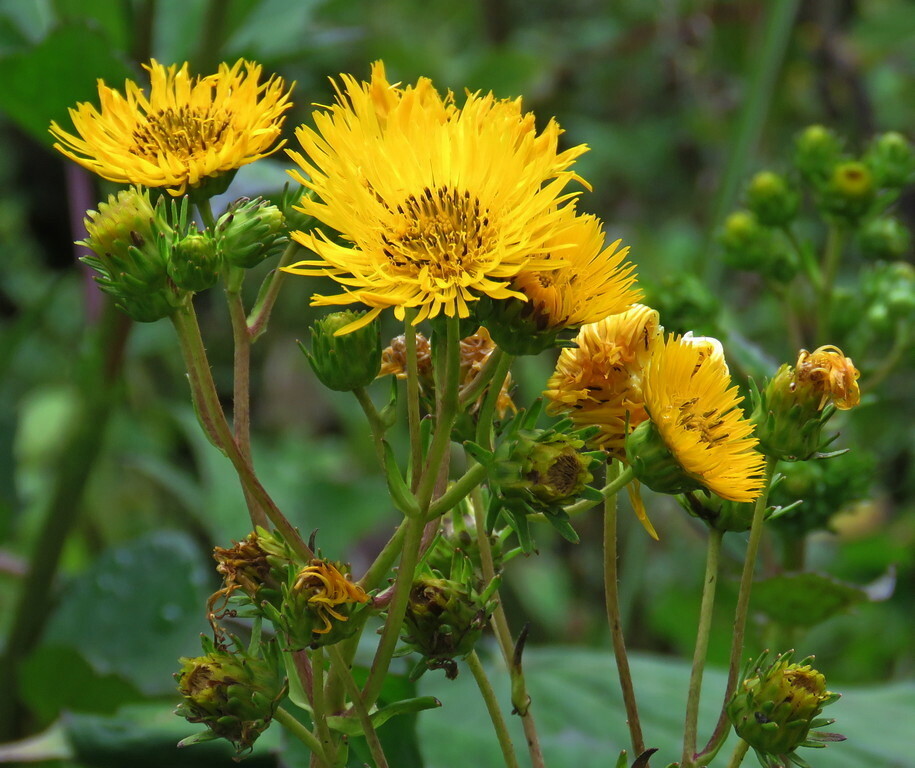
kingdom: Plantae
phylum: Tracheophyta
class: Magnoliopsida
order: Asterales
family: Asteraceae
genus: Erato
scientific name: Erato polymnioides
